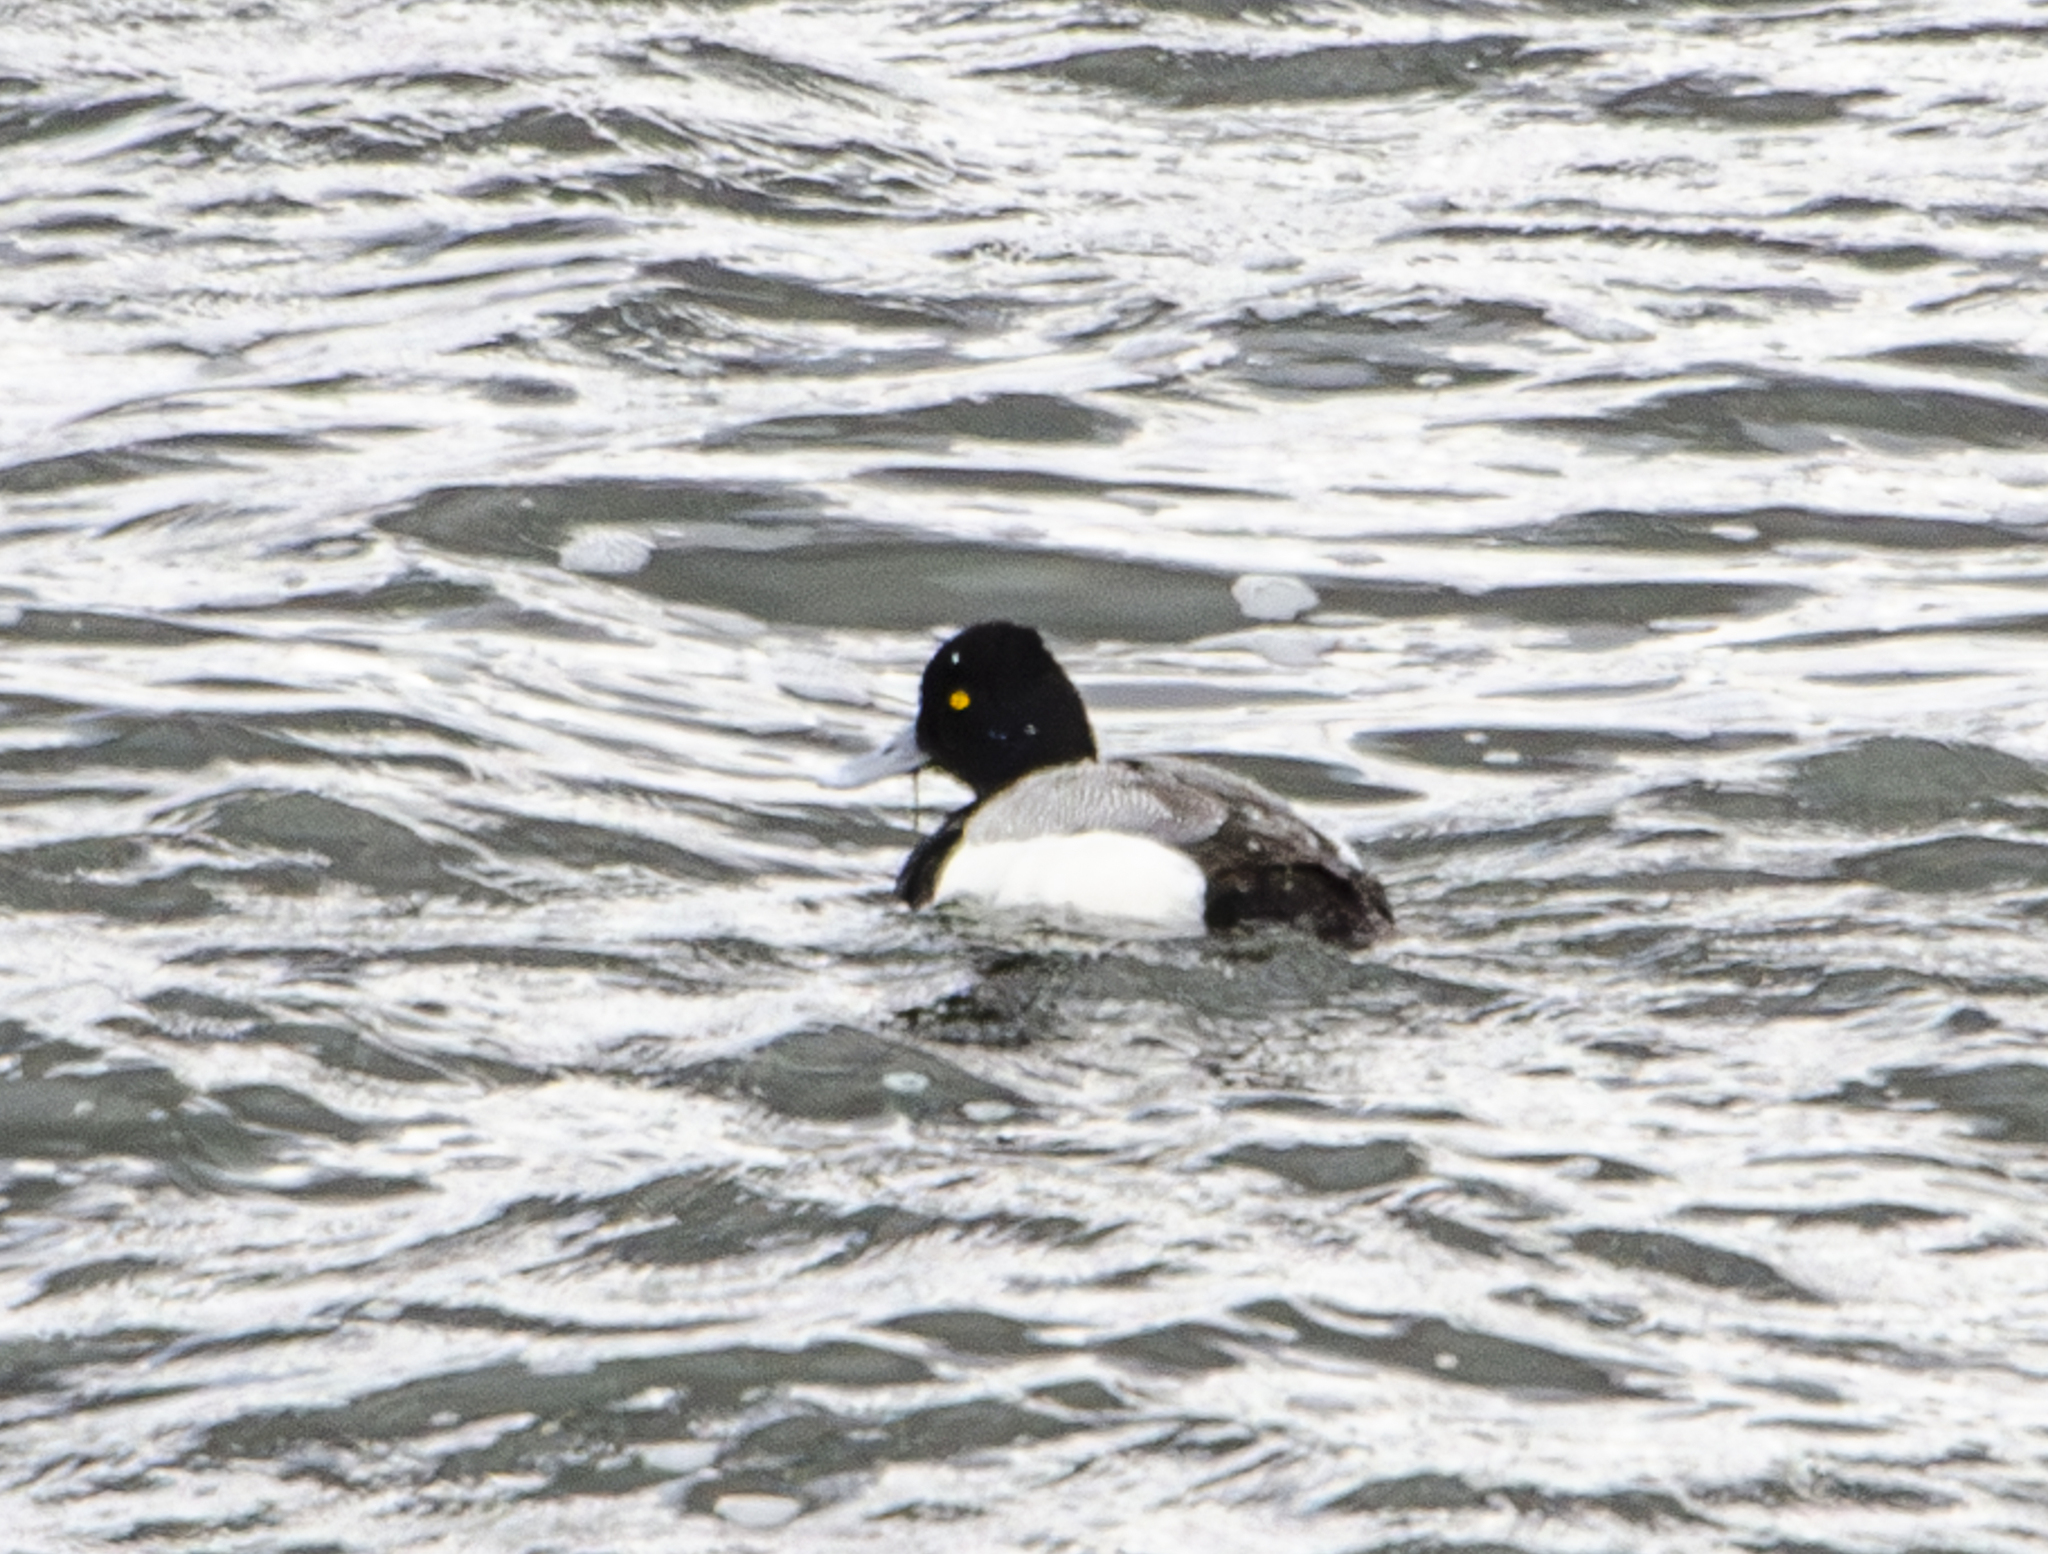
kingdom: Animalia
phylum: Chordata
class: Aves
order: Anseriformes
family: Anatidae
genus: Aythya
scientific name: Aythya affinis
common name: Lesser scaup
